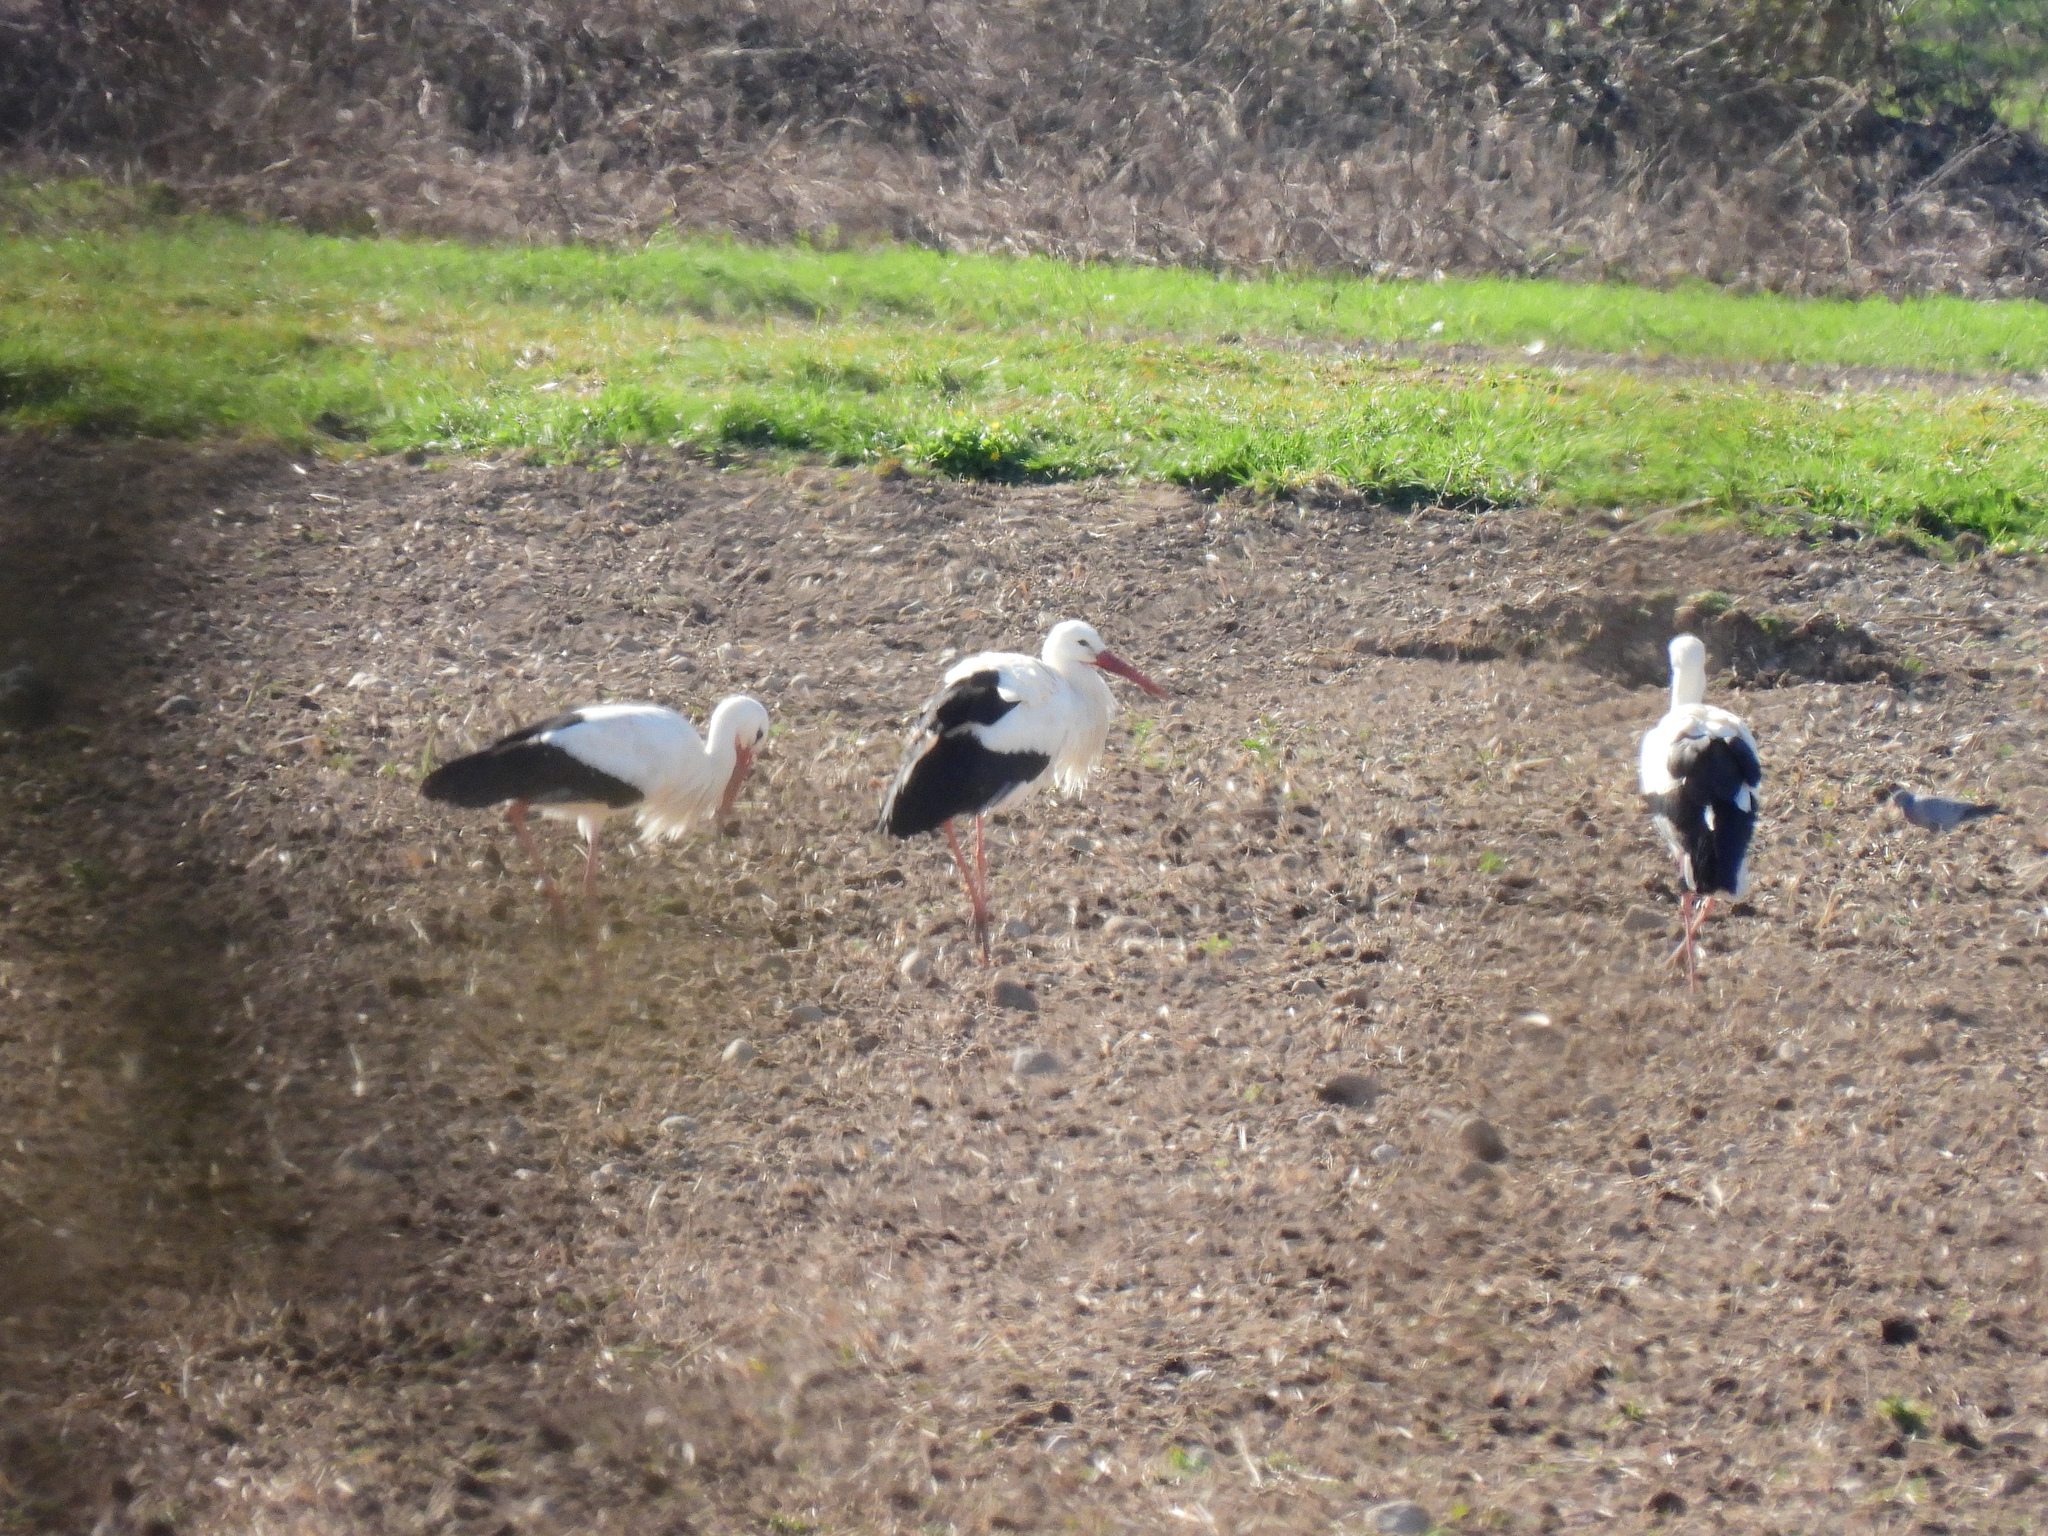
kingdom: Animalia
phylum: Chordata
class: Aves
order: Ciconiiformes
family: Ciconiidae
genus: Ciconia
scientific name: Ciconia ciconia
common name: White stork
